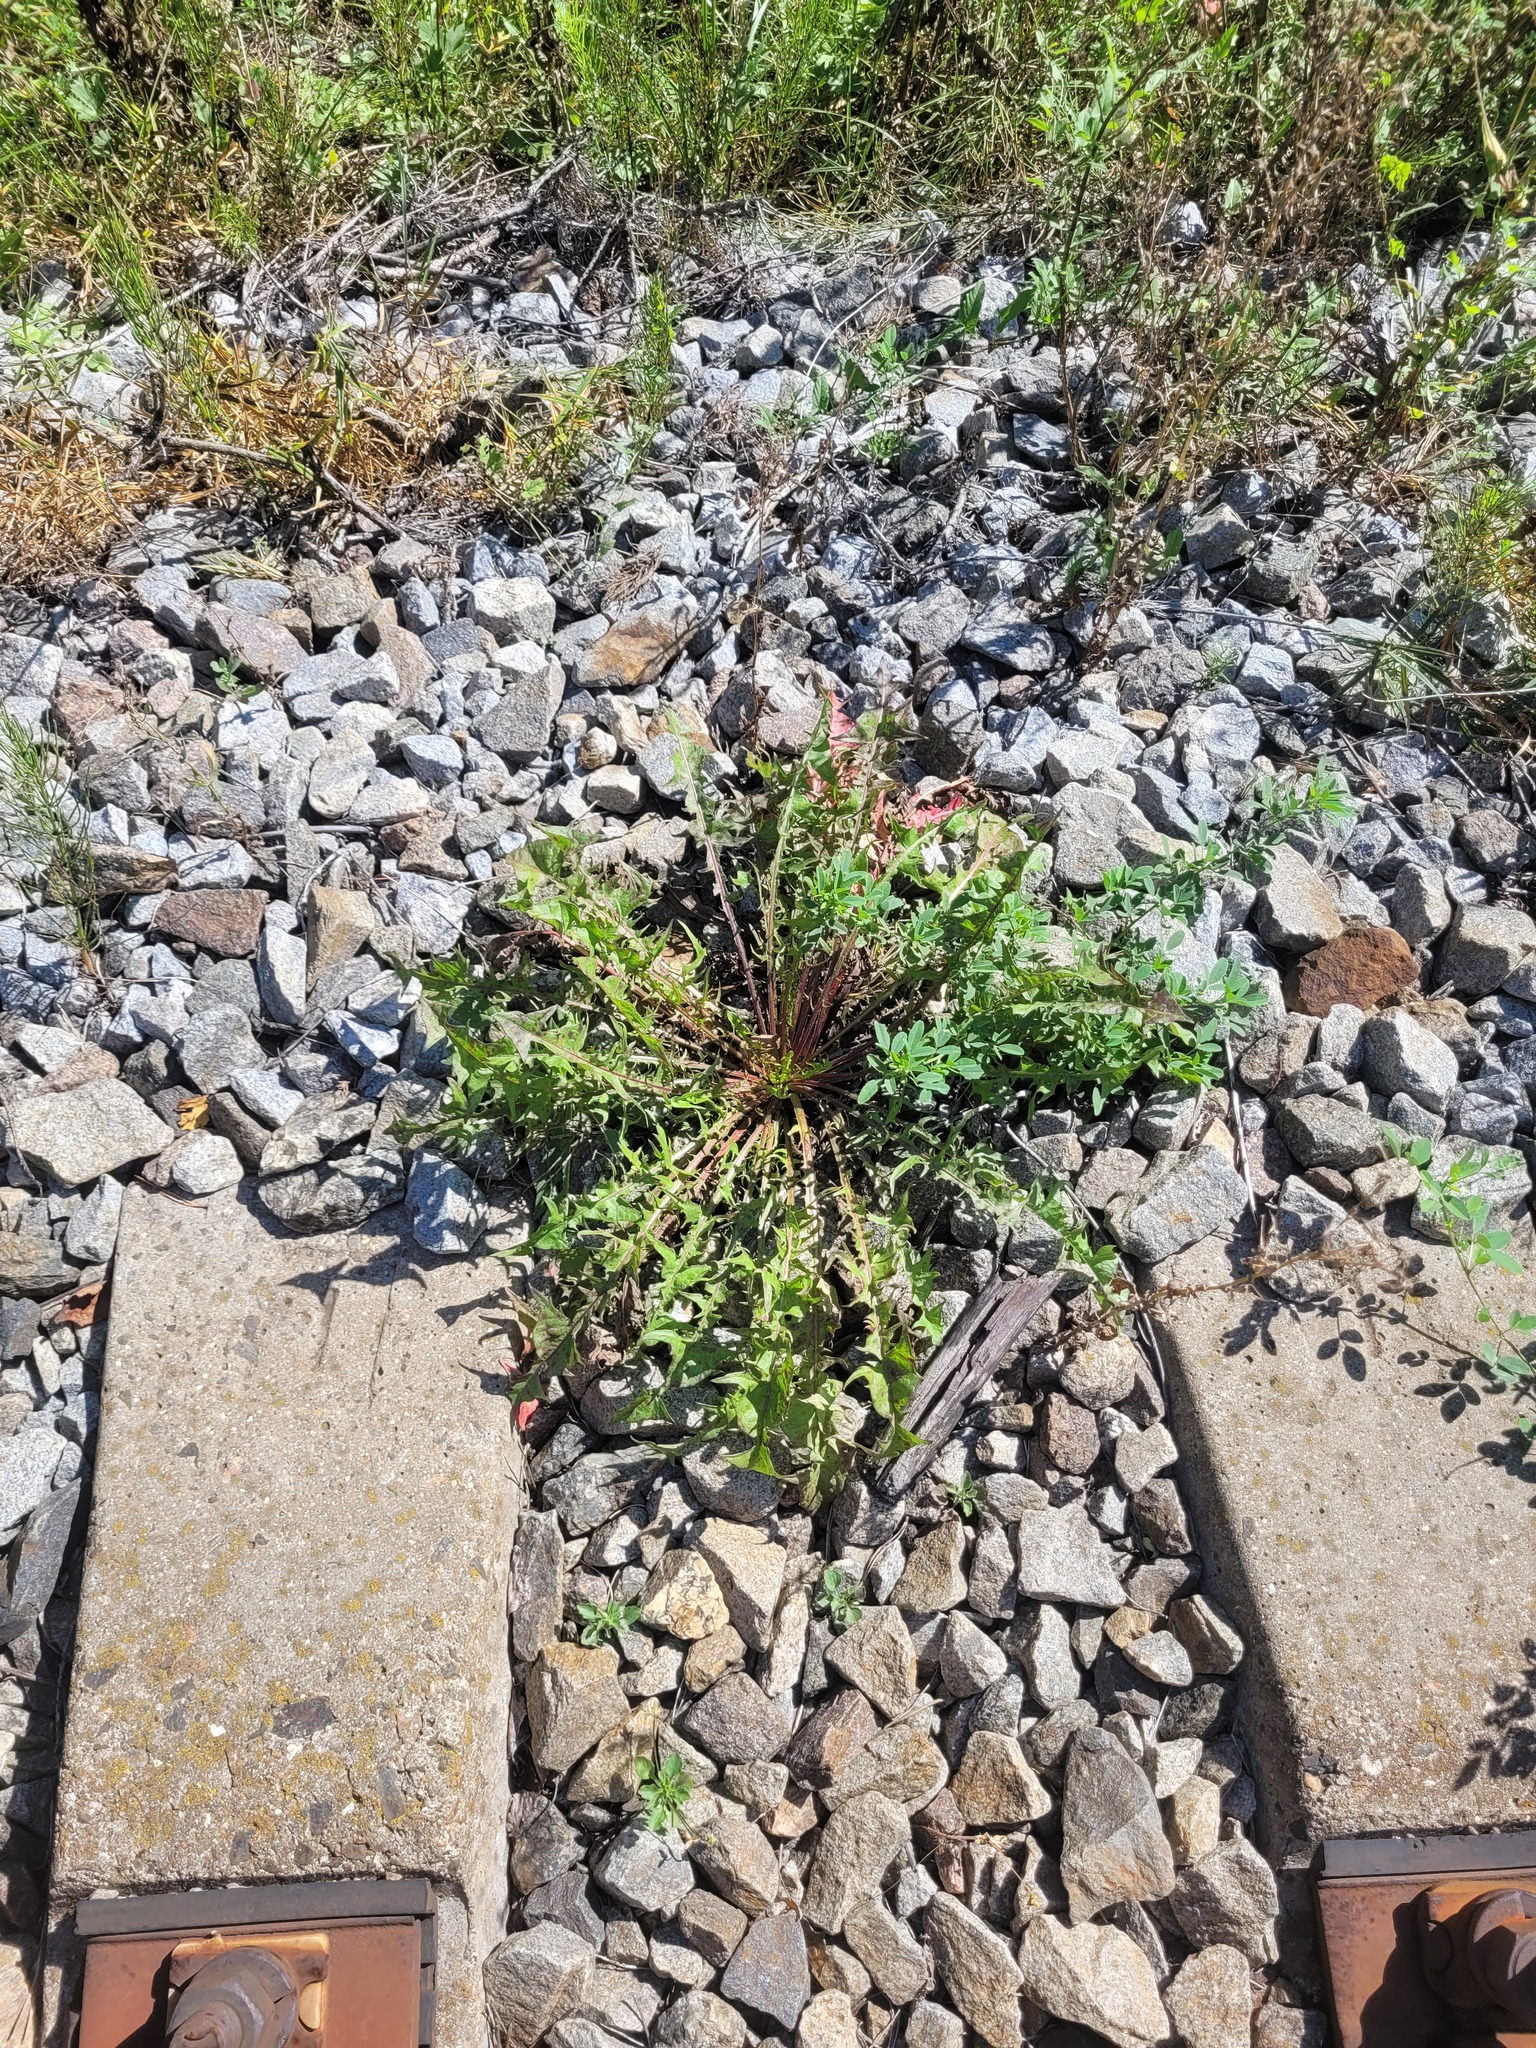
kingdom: Plantae
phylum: Tracheophyta
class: Magnoliopsida
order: Asterales
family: Asteraceae
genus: Taraxacum
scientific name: Taraxacum officinale
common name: Common dandelion
